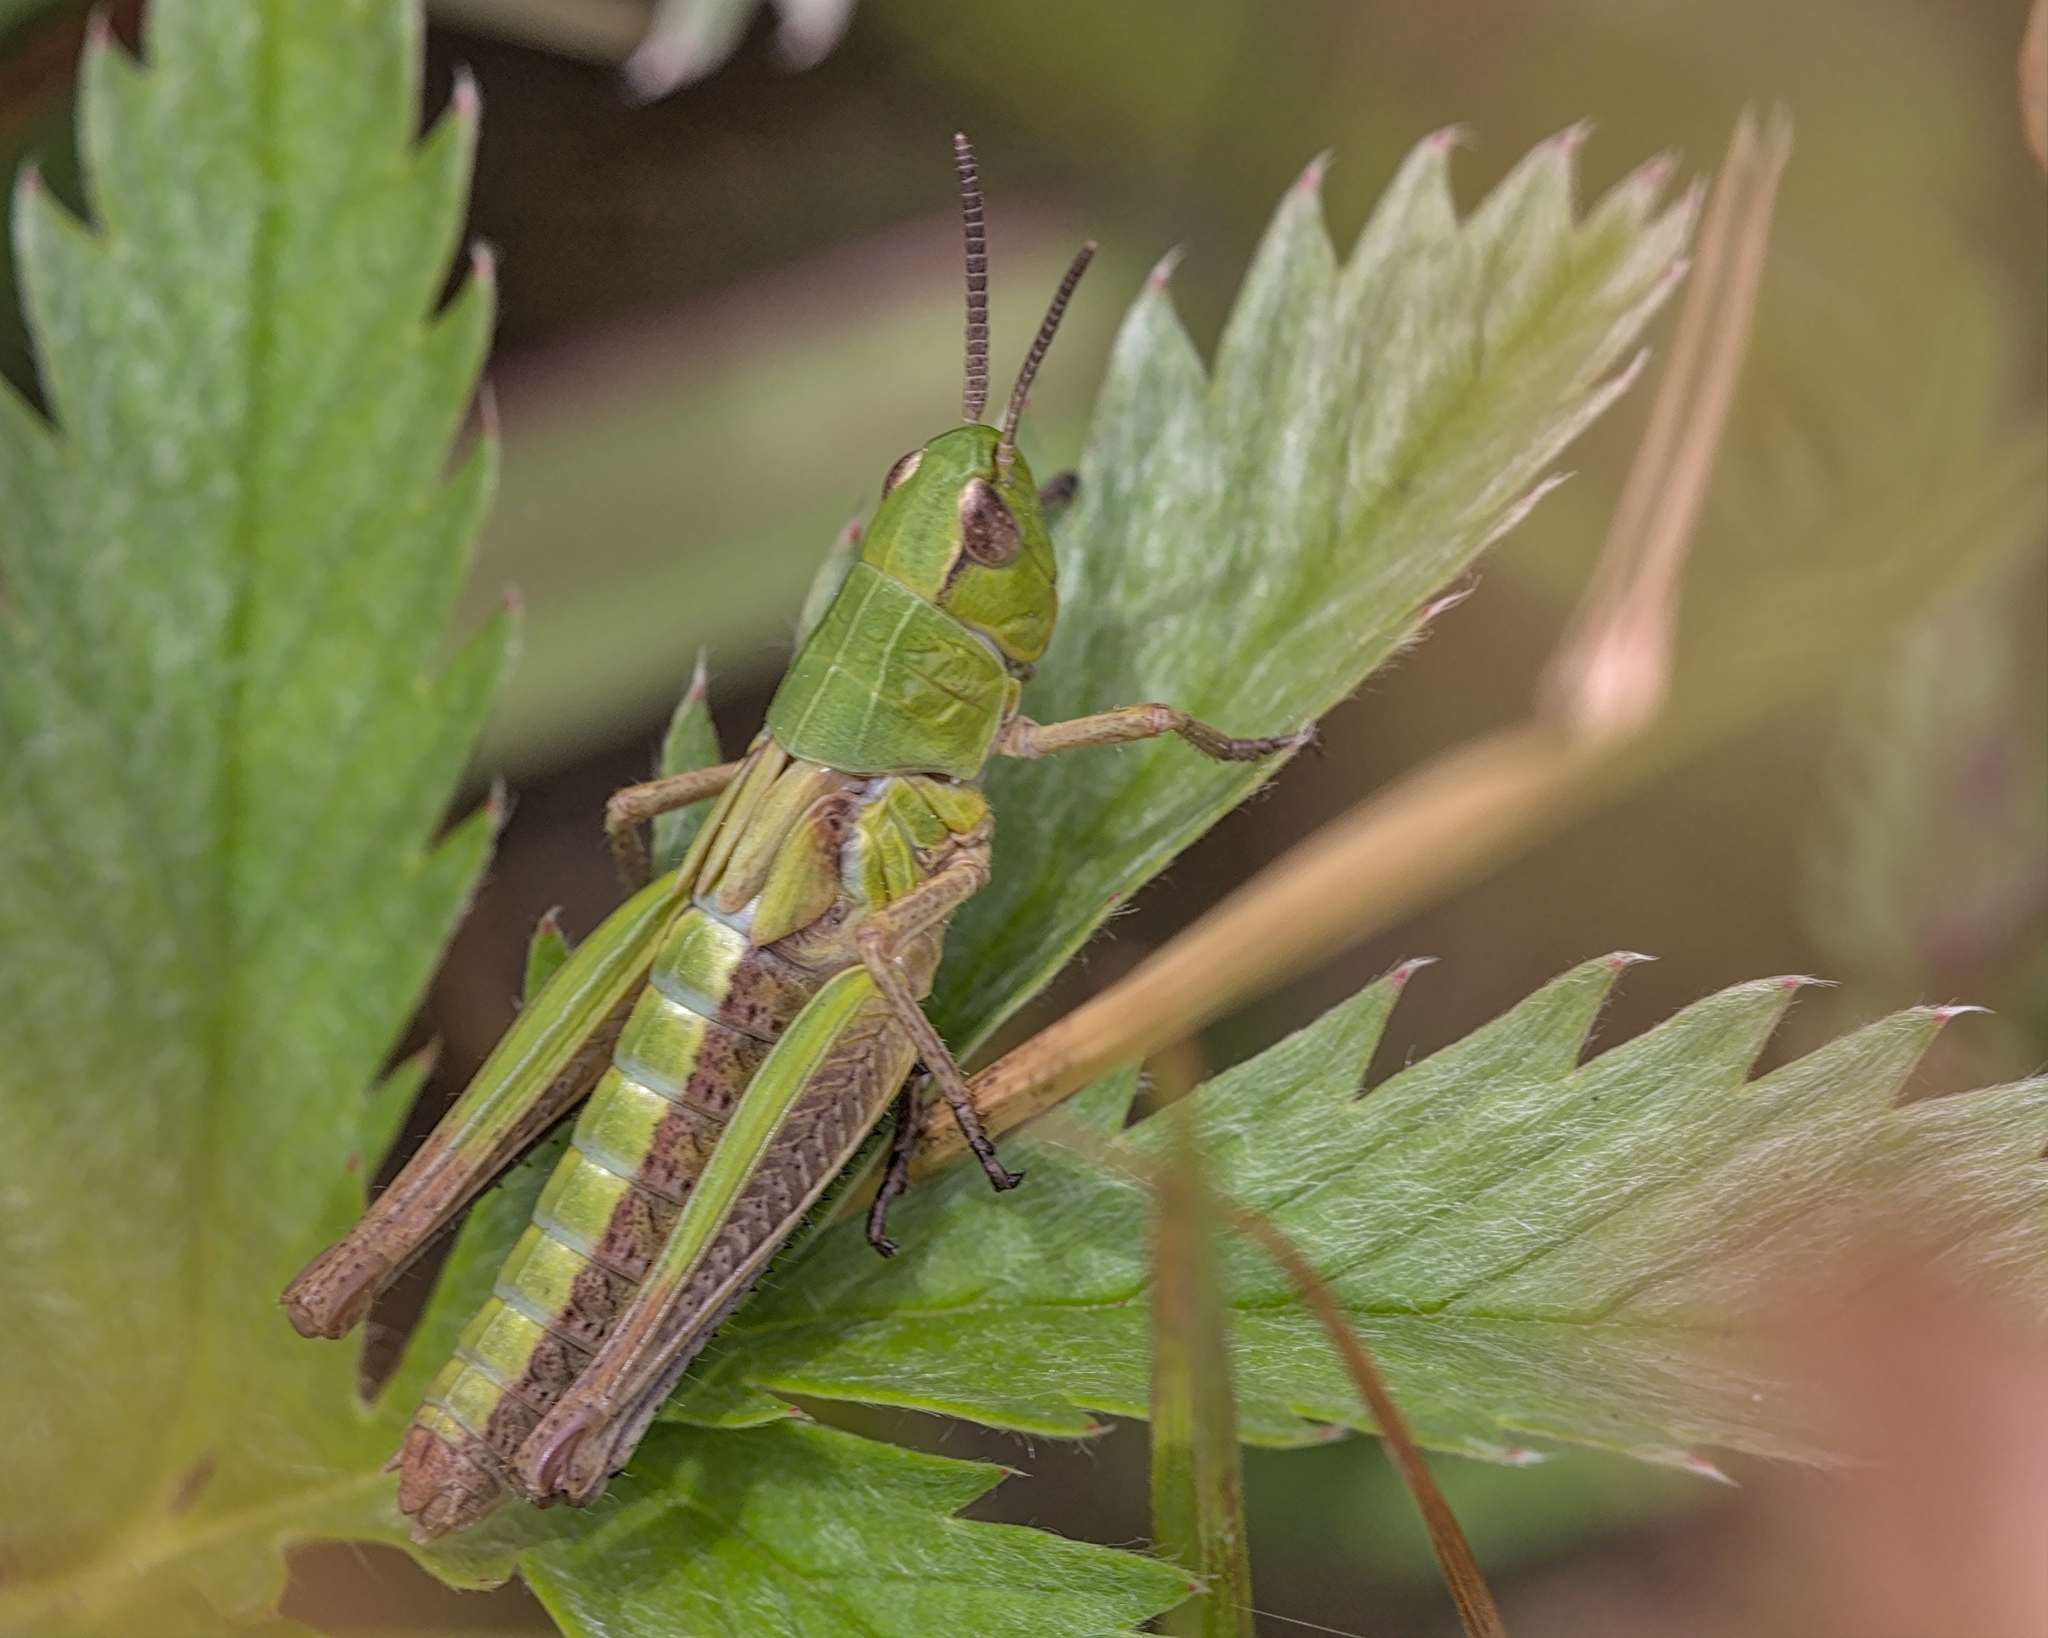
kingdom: Animalia
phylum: Arthropoda
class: Insecta
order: Orthoptera
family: Acrididae
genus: Pseudochorthippus
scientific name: Pseudochorthippus parallelus
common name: Meadow grasshopper
